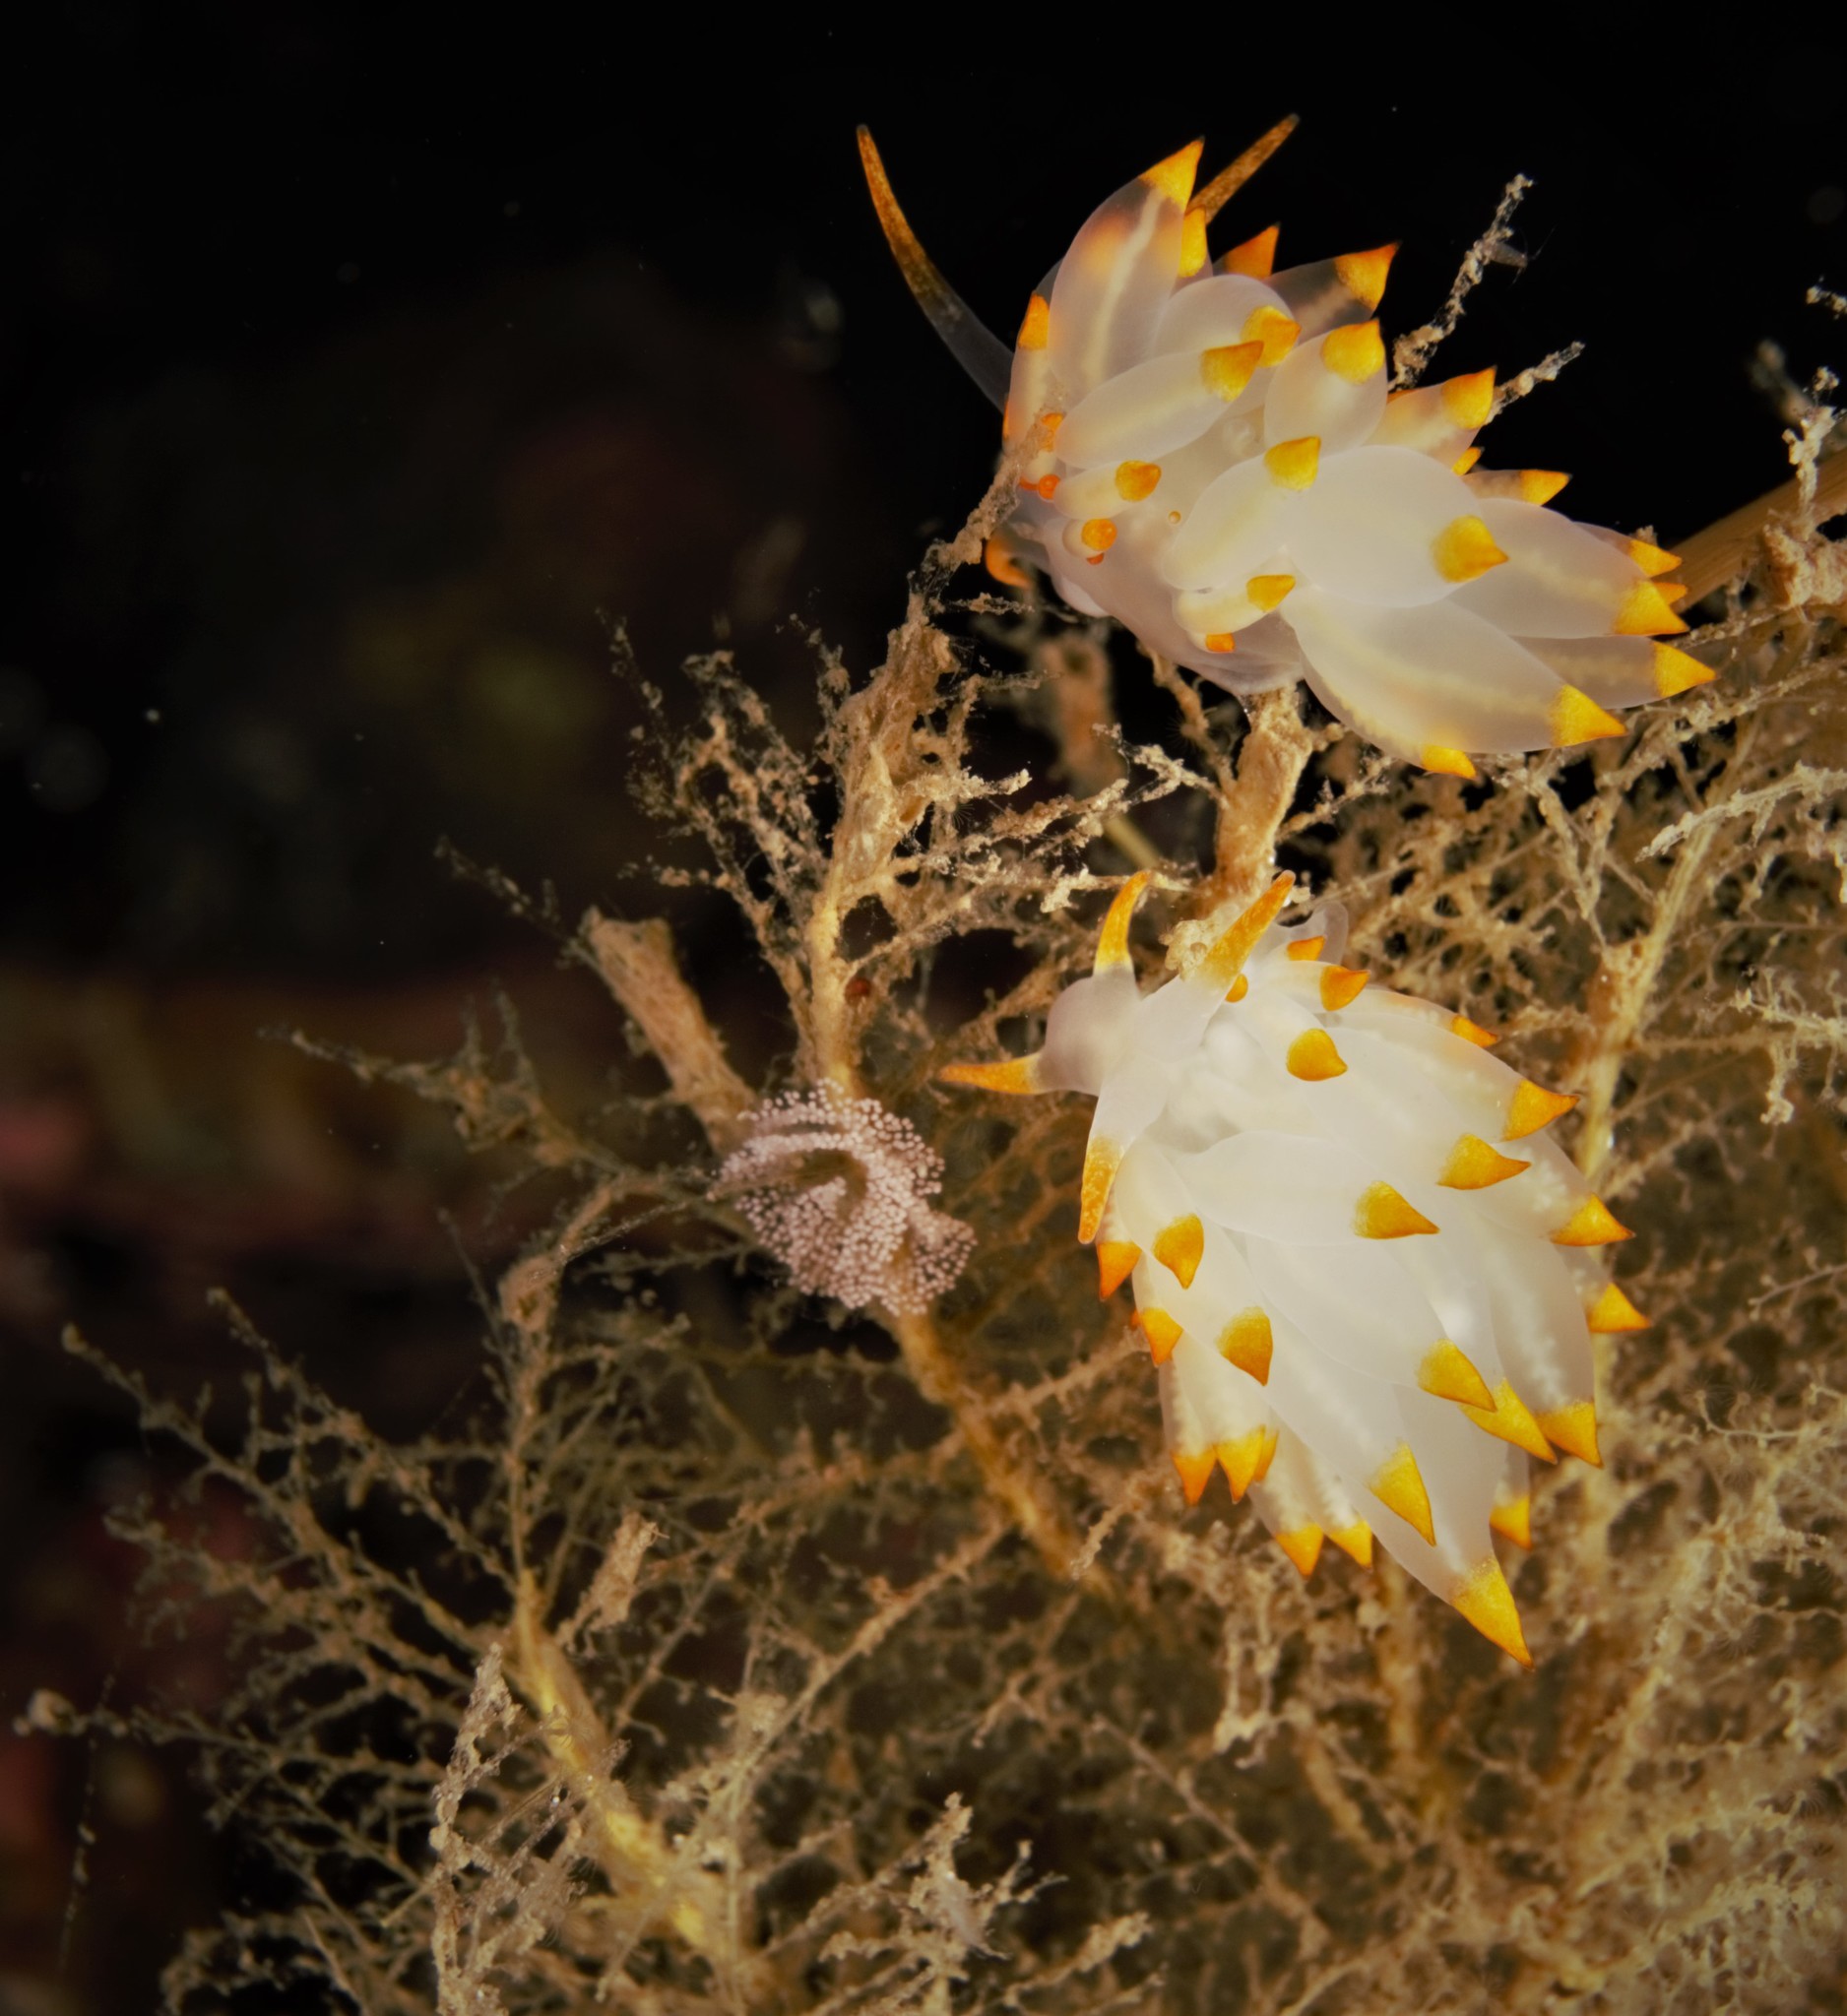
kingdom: Animalia
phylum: Mollusca
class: Gastropoda
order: Nudibranchia
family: Eubranchidae
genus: Amphorina
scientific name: Amphorina farrani
